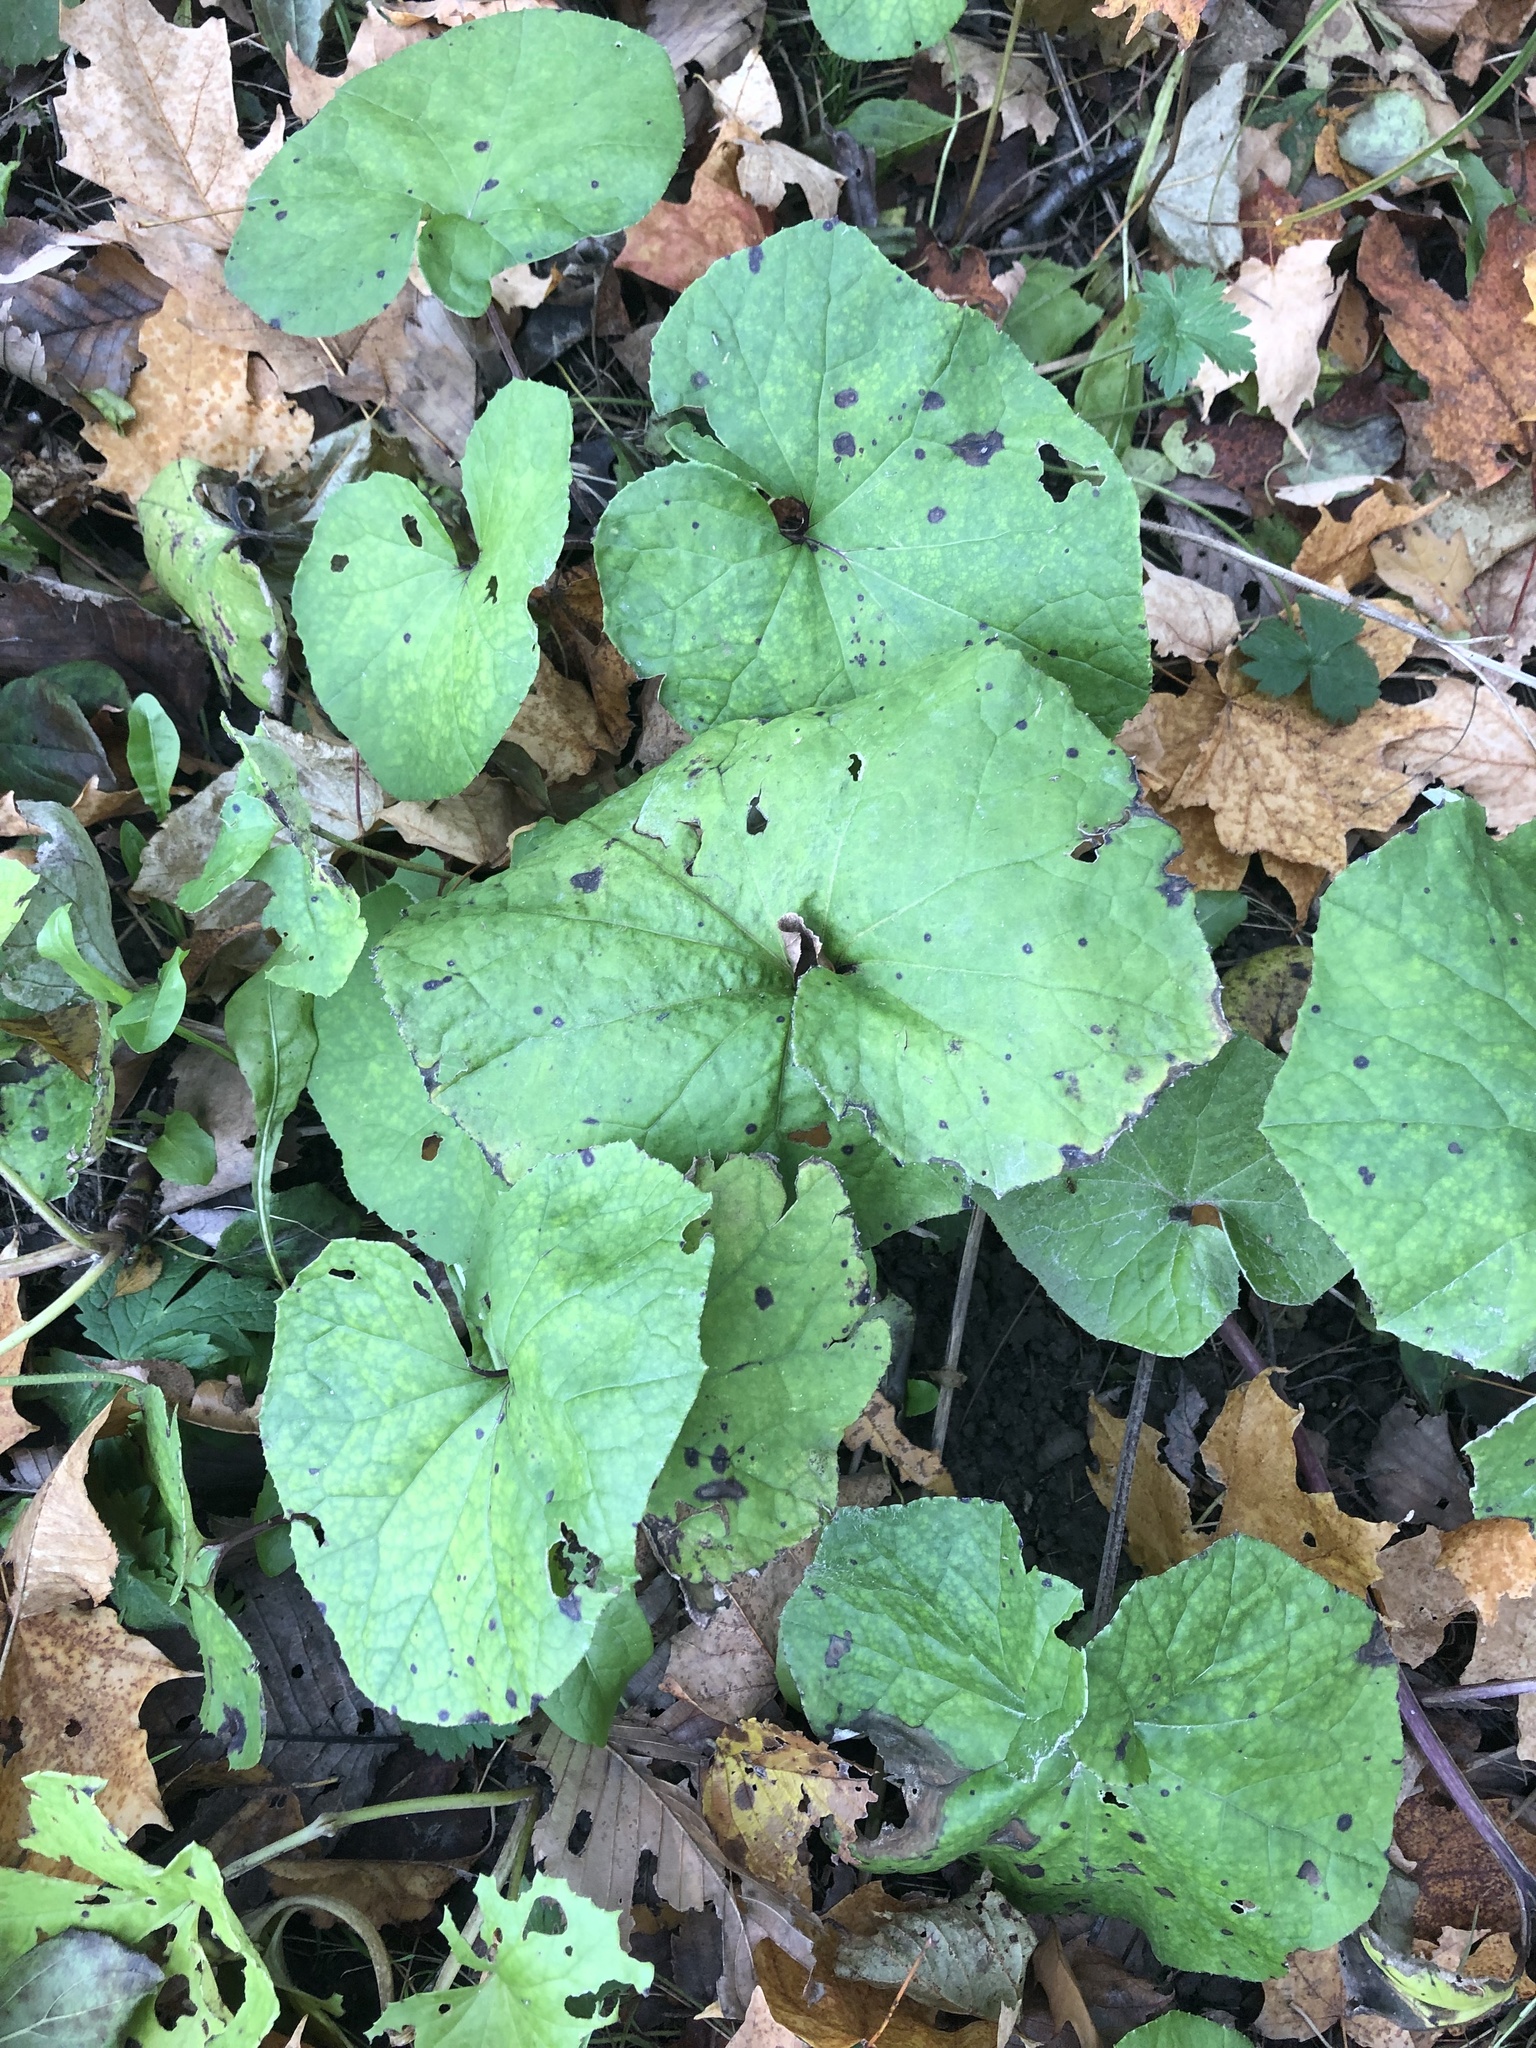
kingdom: Plantae
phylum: Tracheophyta
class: Magnoliopsida
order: Asterales
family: Asteraceae
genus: Tussilago
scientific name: Tussilago farfara
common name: Coltsfoot
